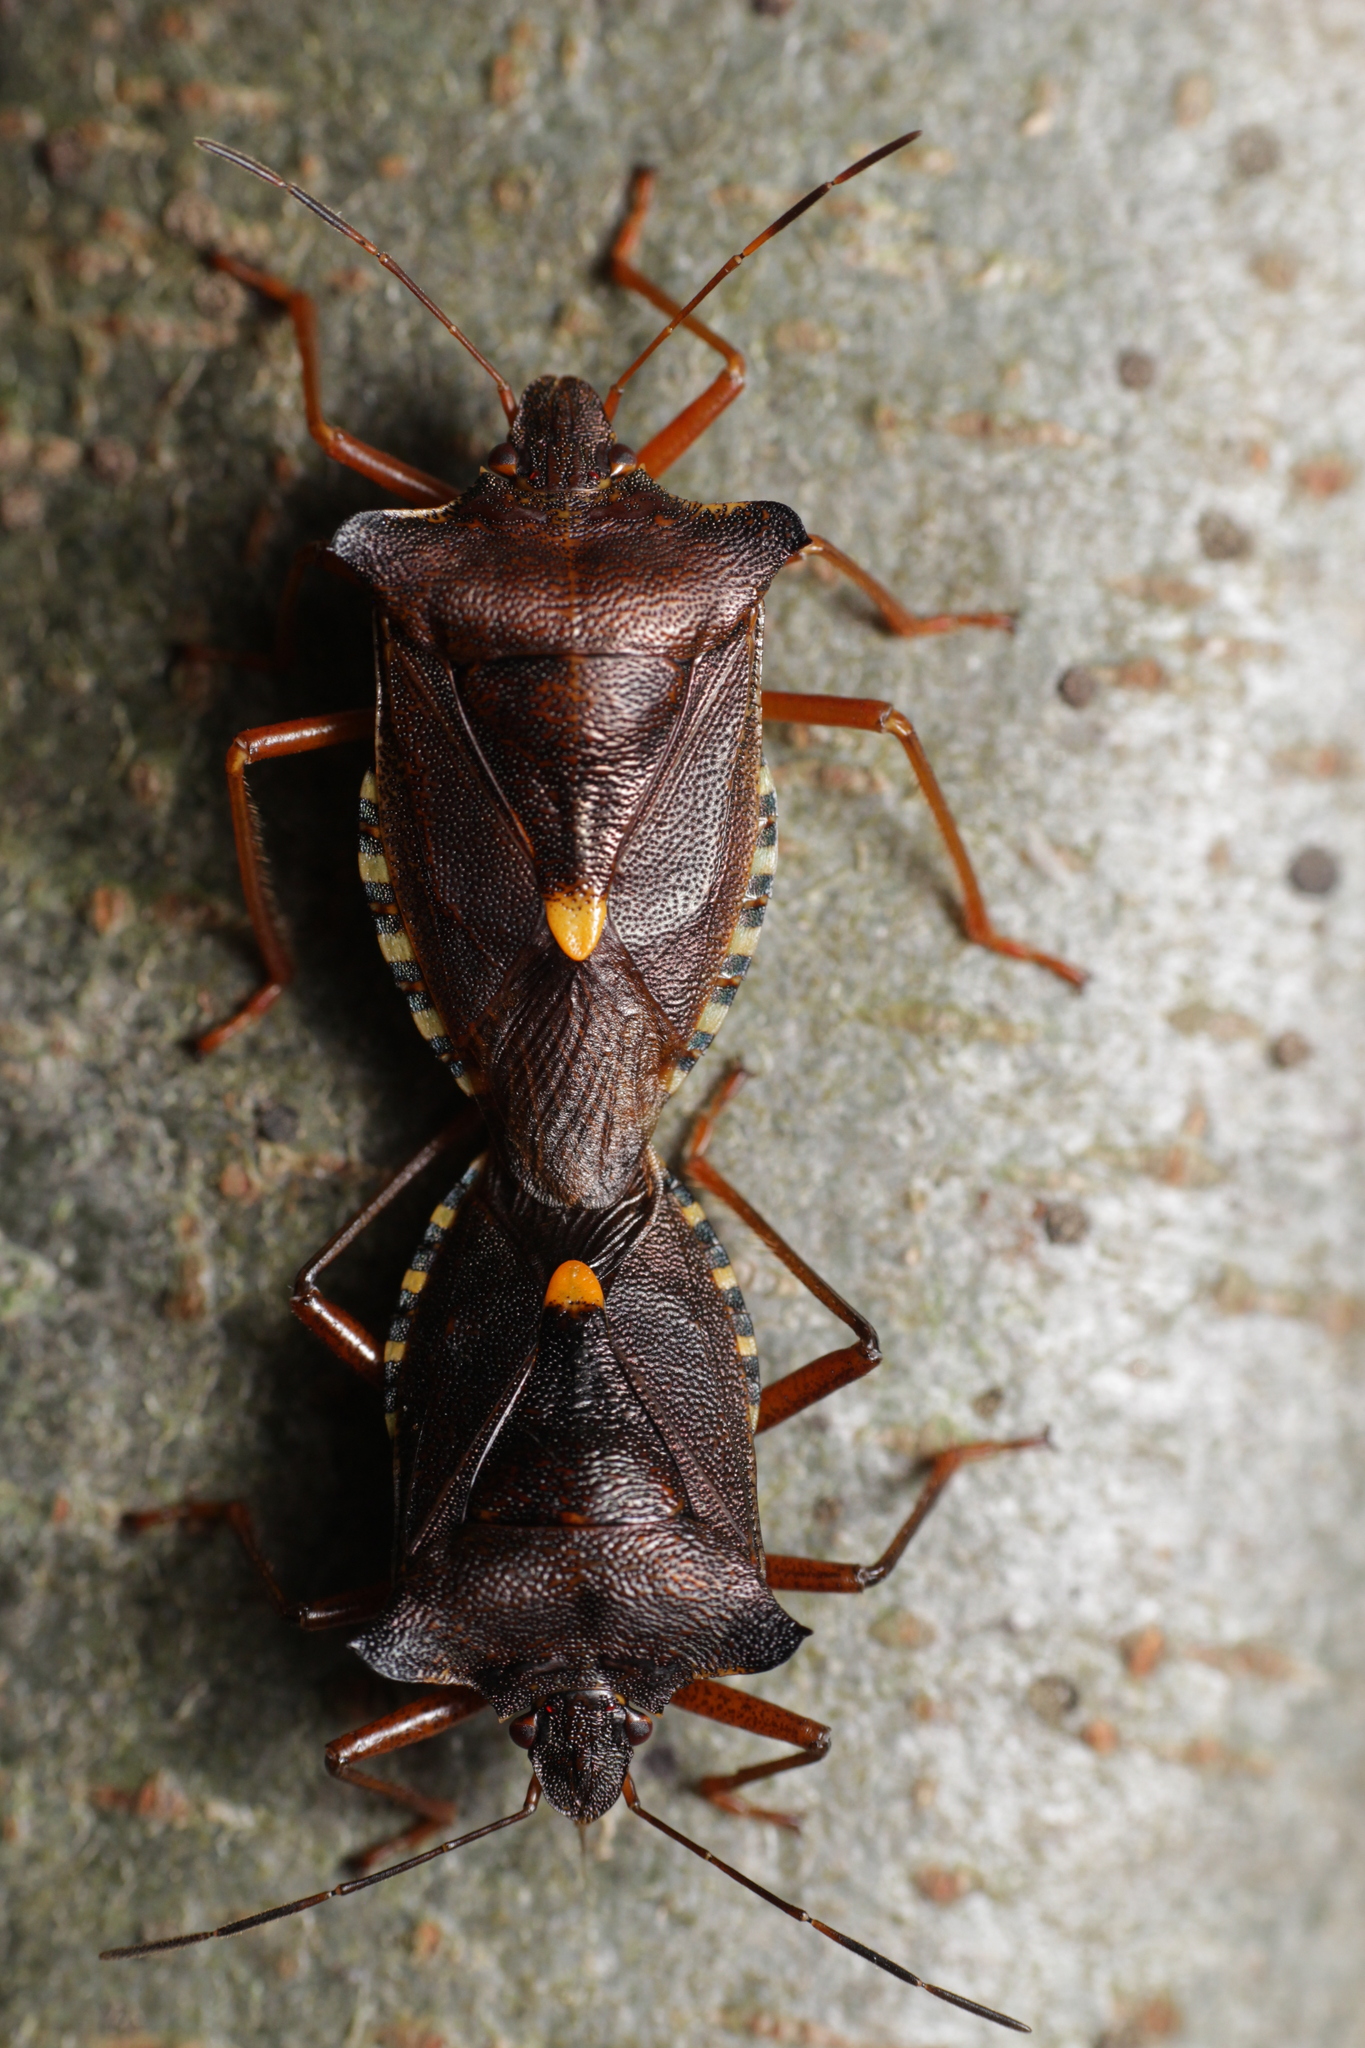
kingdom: Animalia
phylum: Arthropoda
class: Insecta
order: Hemiptera
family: Pentatomidae
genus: Pentatoma
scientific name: Pentatoma rufipes
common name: Forest bug
